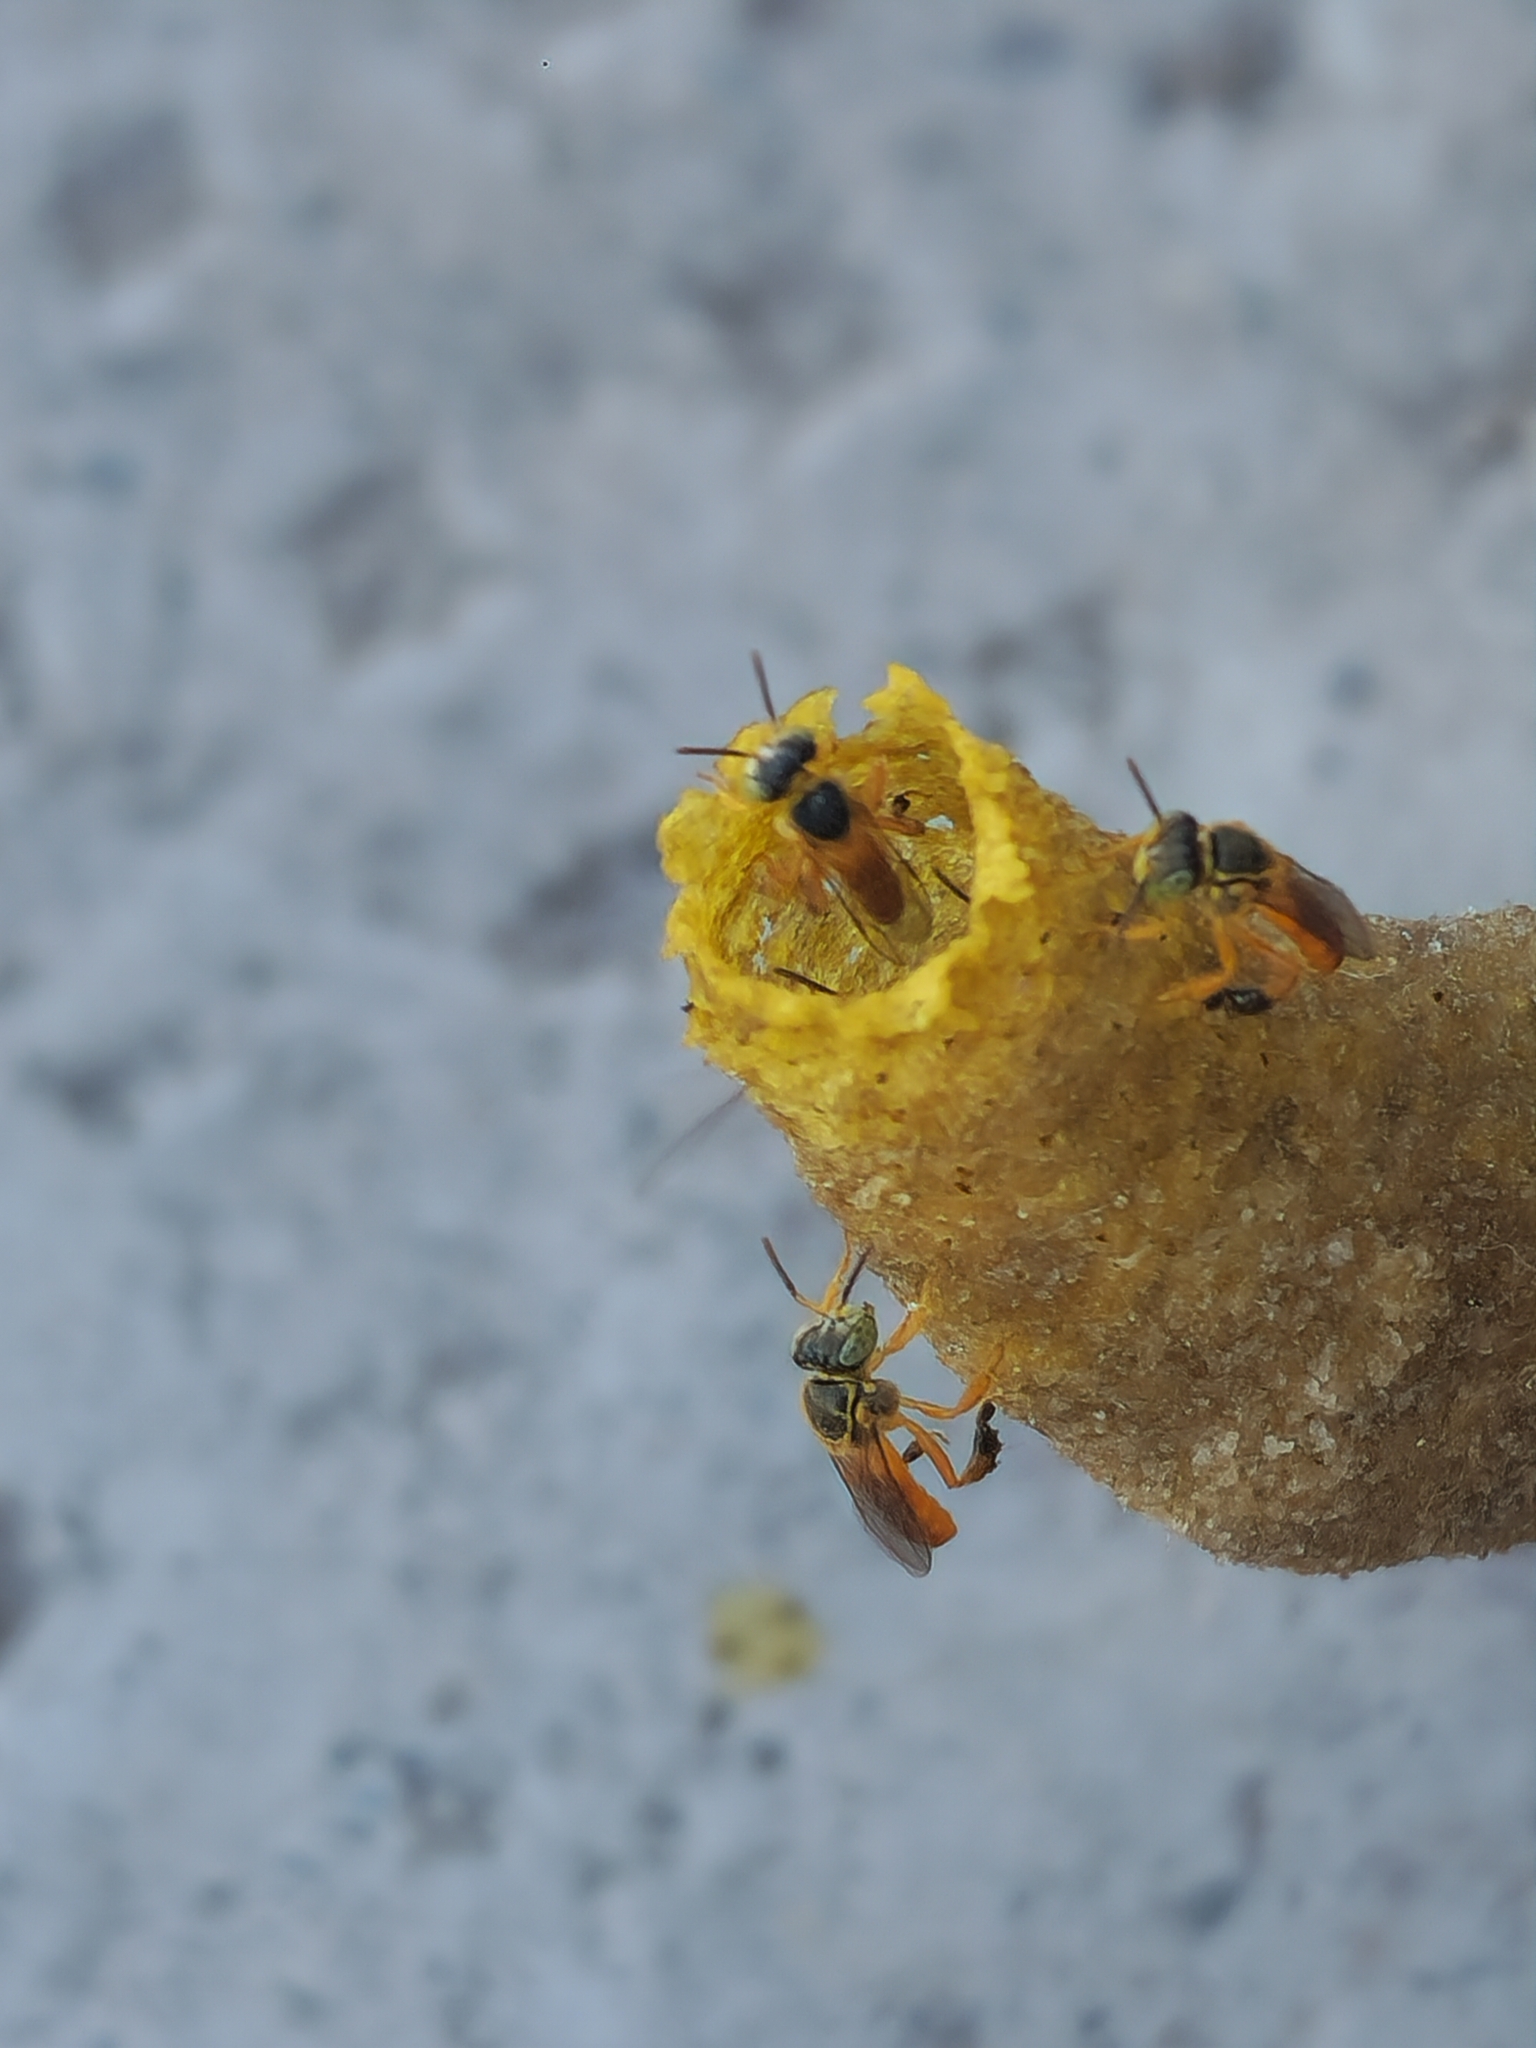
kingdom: Animalia
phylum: Arthropoda
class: Insecta
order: Hymenoptera
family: Apidae
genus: Tetragonisca
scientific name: Tetragonisca fiebrigi
